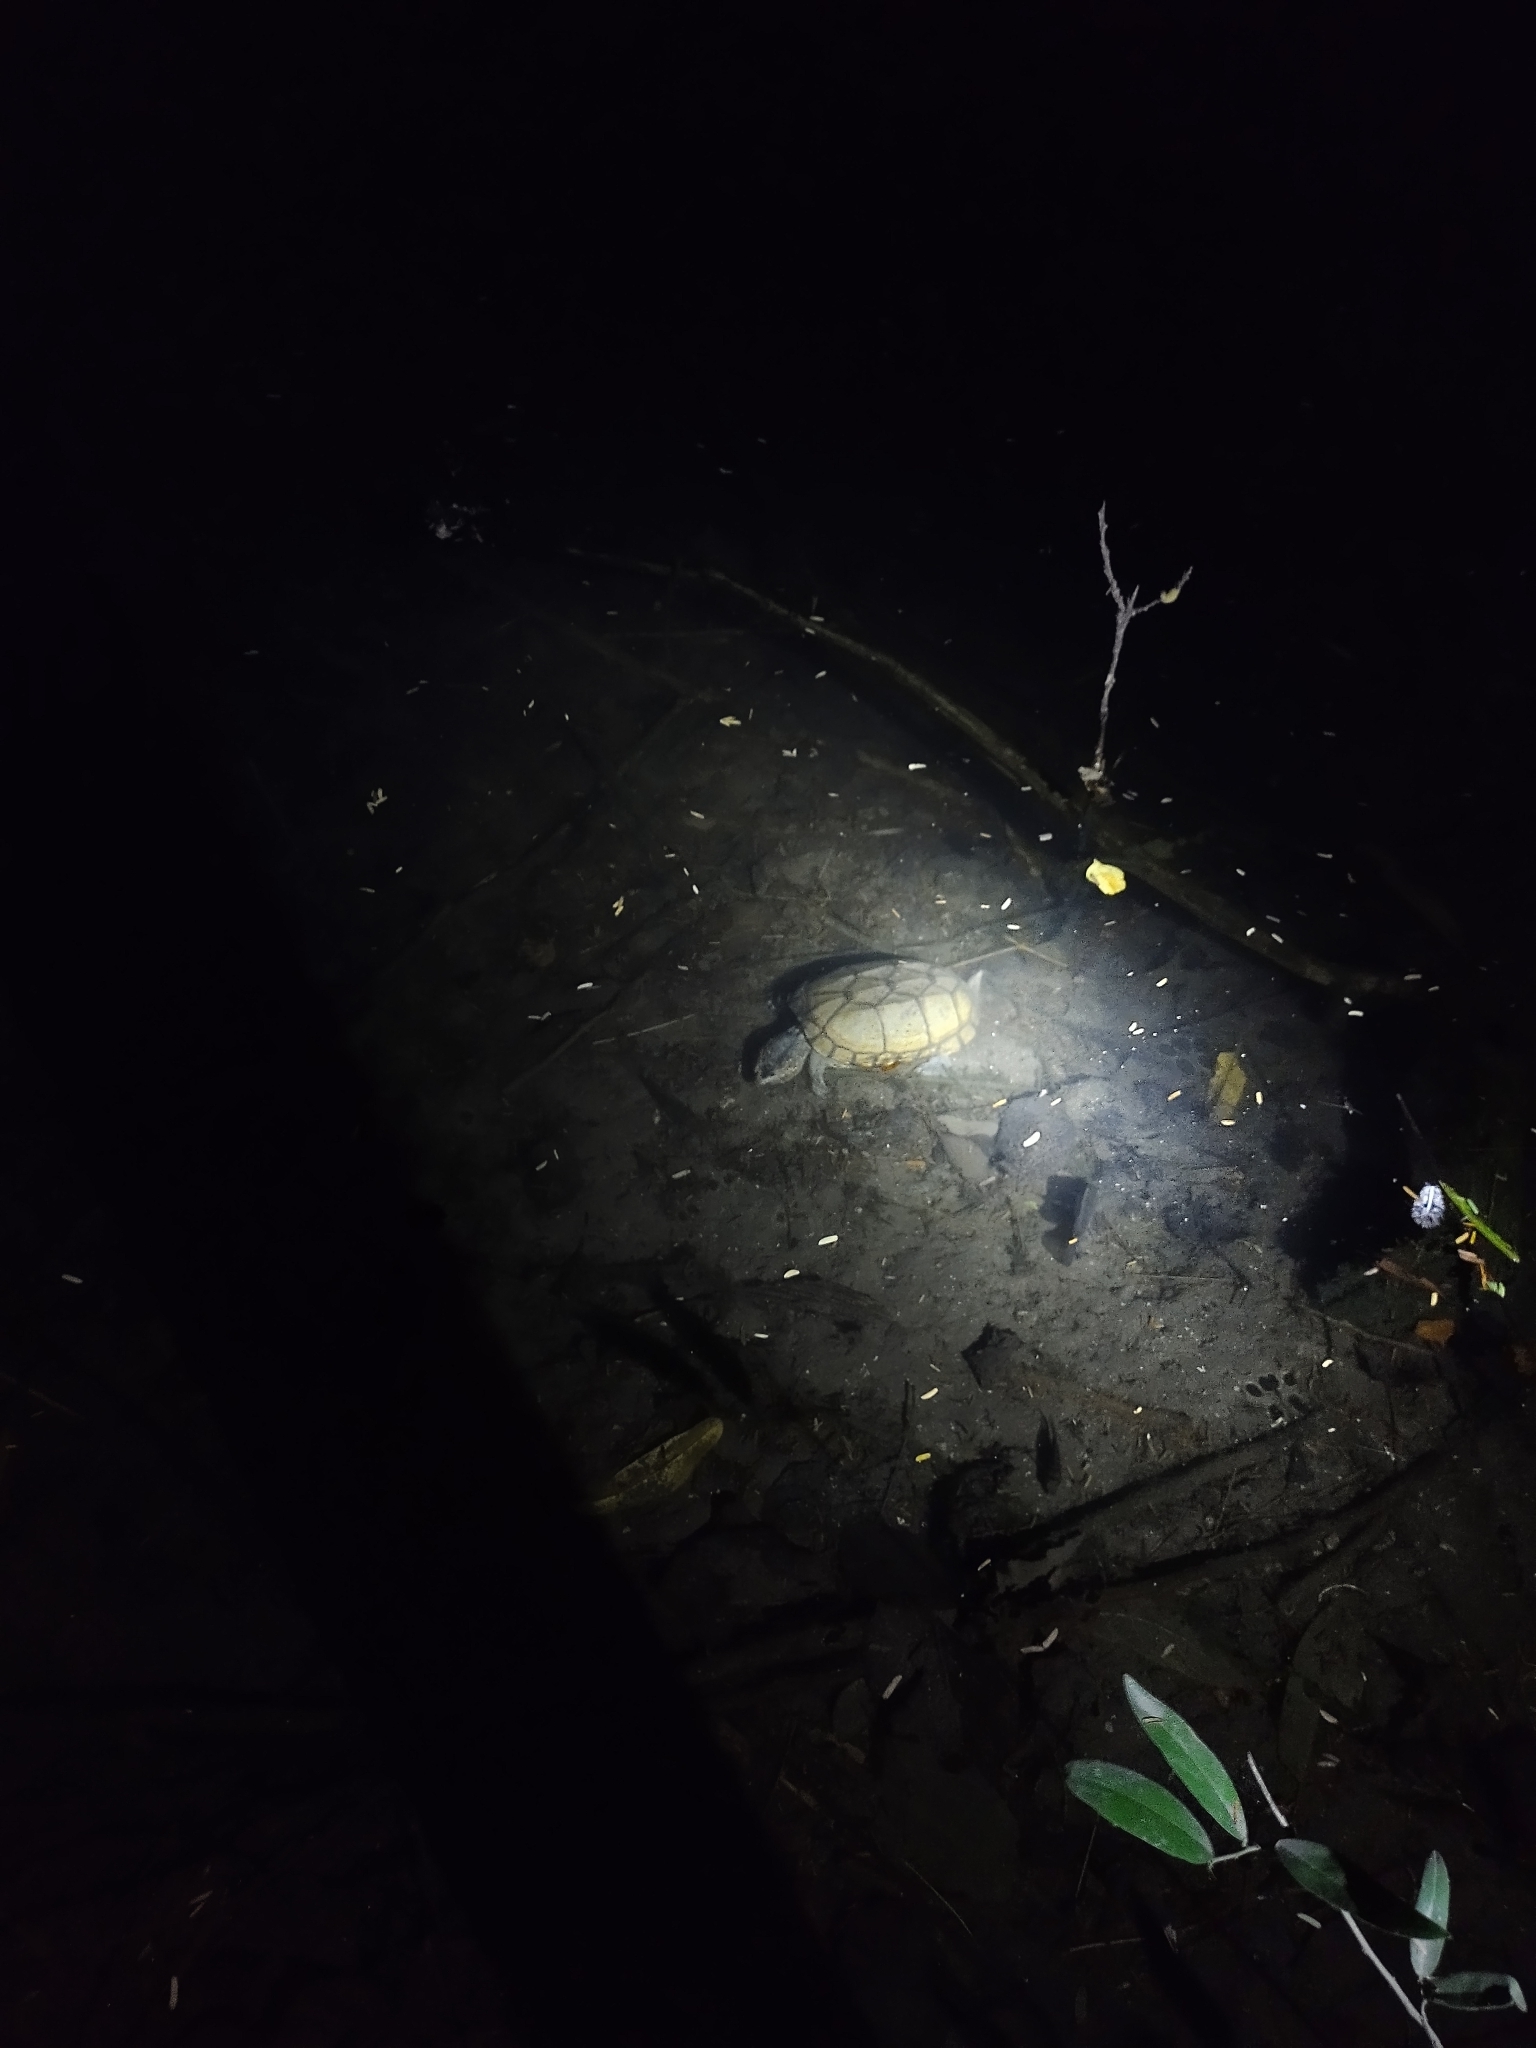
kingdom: Animalia
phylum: Chordata
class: Testudines
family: Kinosternidae
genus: Kinosternon
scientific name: Kinosternon scorpioides
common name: Scorpion mud turtle
